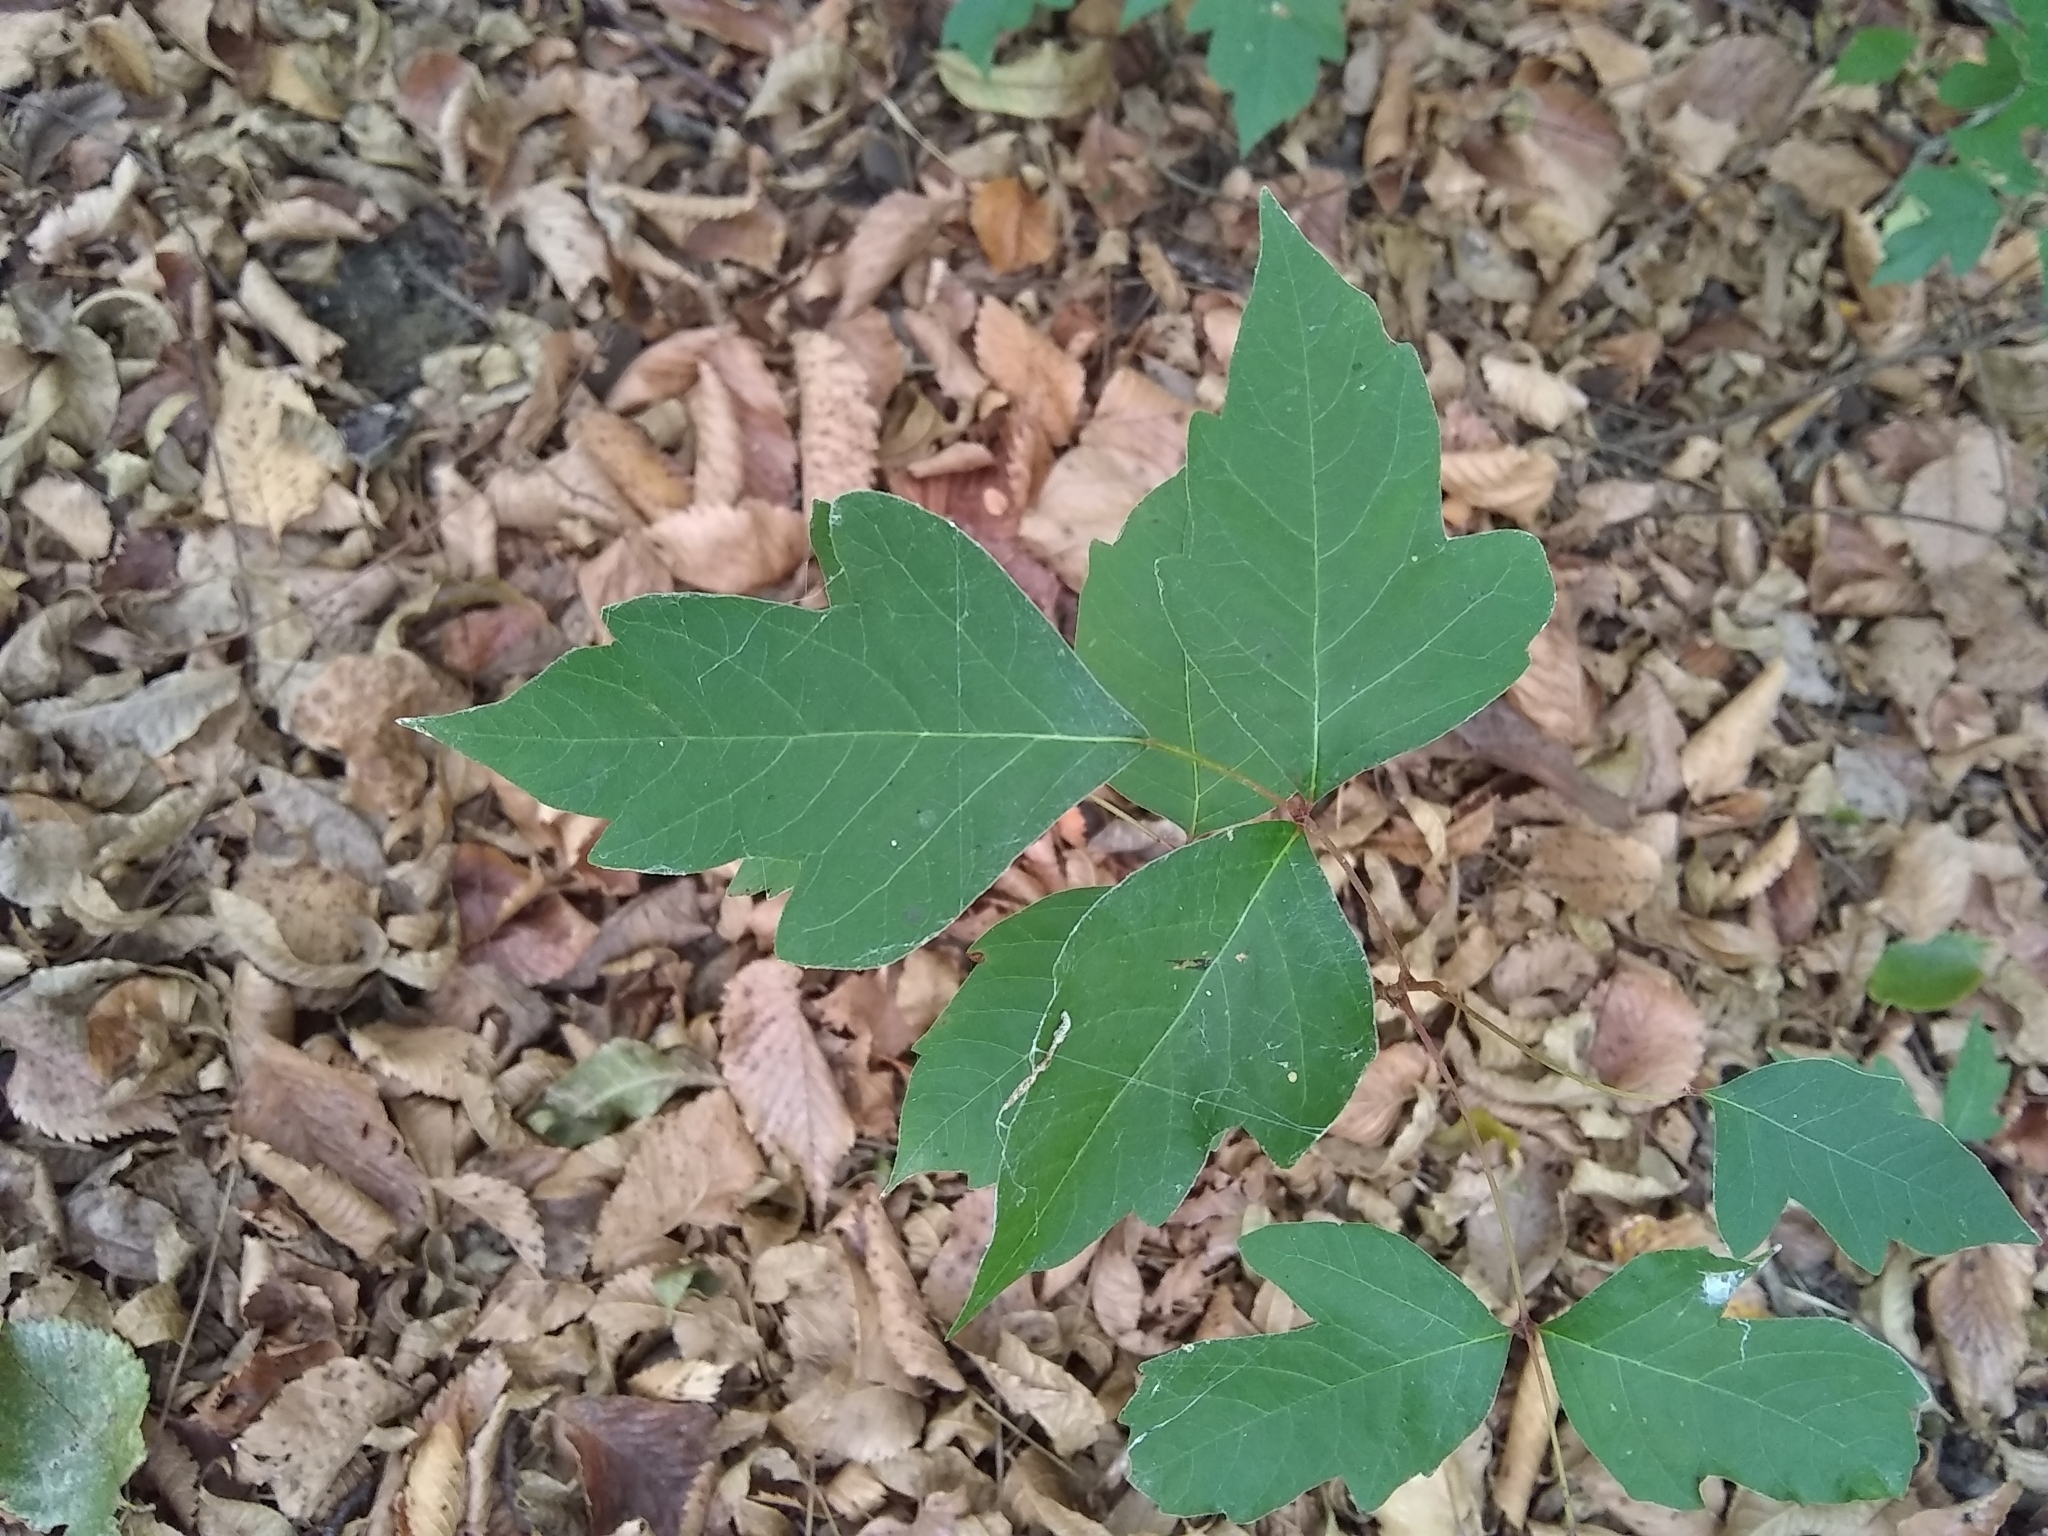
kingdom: Plantae
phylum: Tracheophyta
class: Magnoliopsida
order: Sapindales
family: Anacardiaceae
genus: Toxicodendron
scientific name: Toxicodendron radicans
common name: Poison ivy
